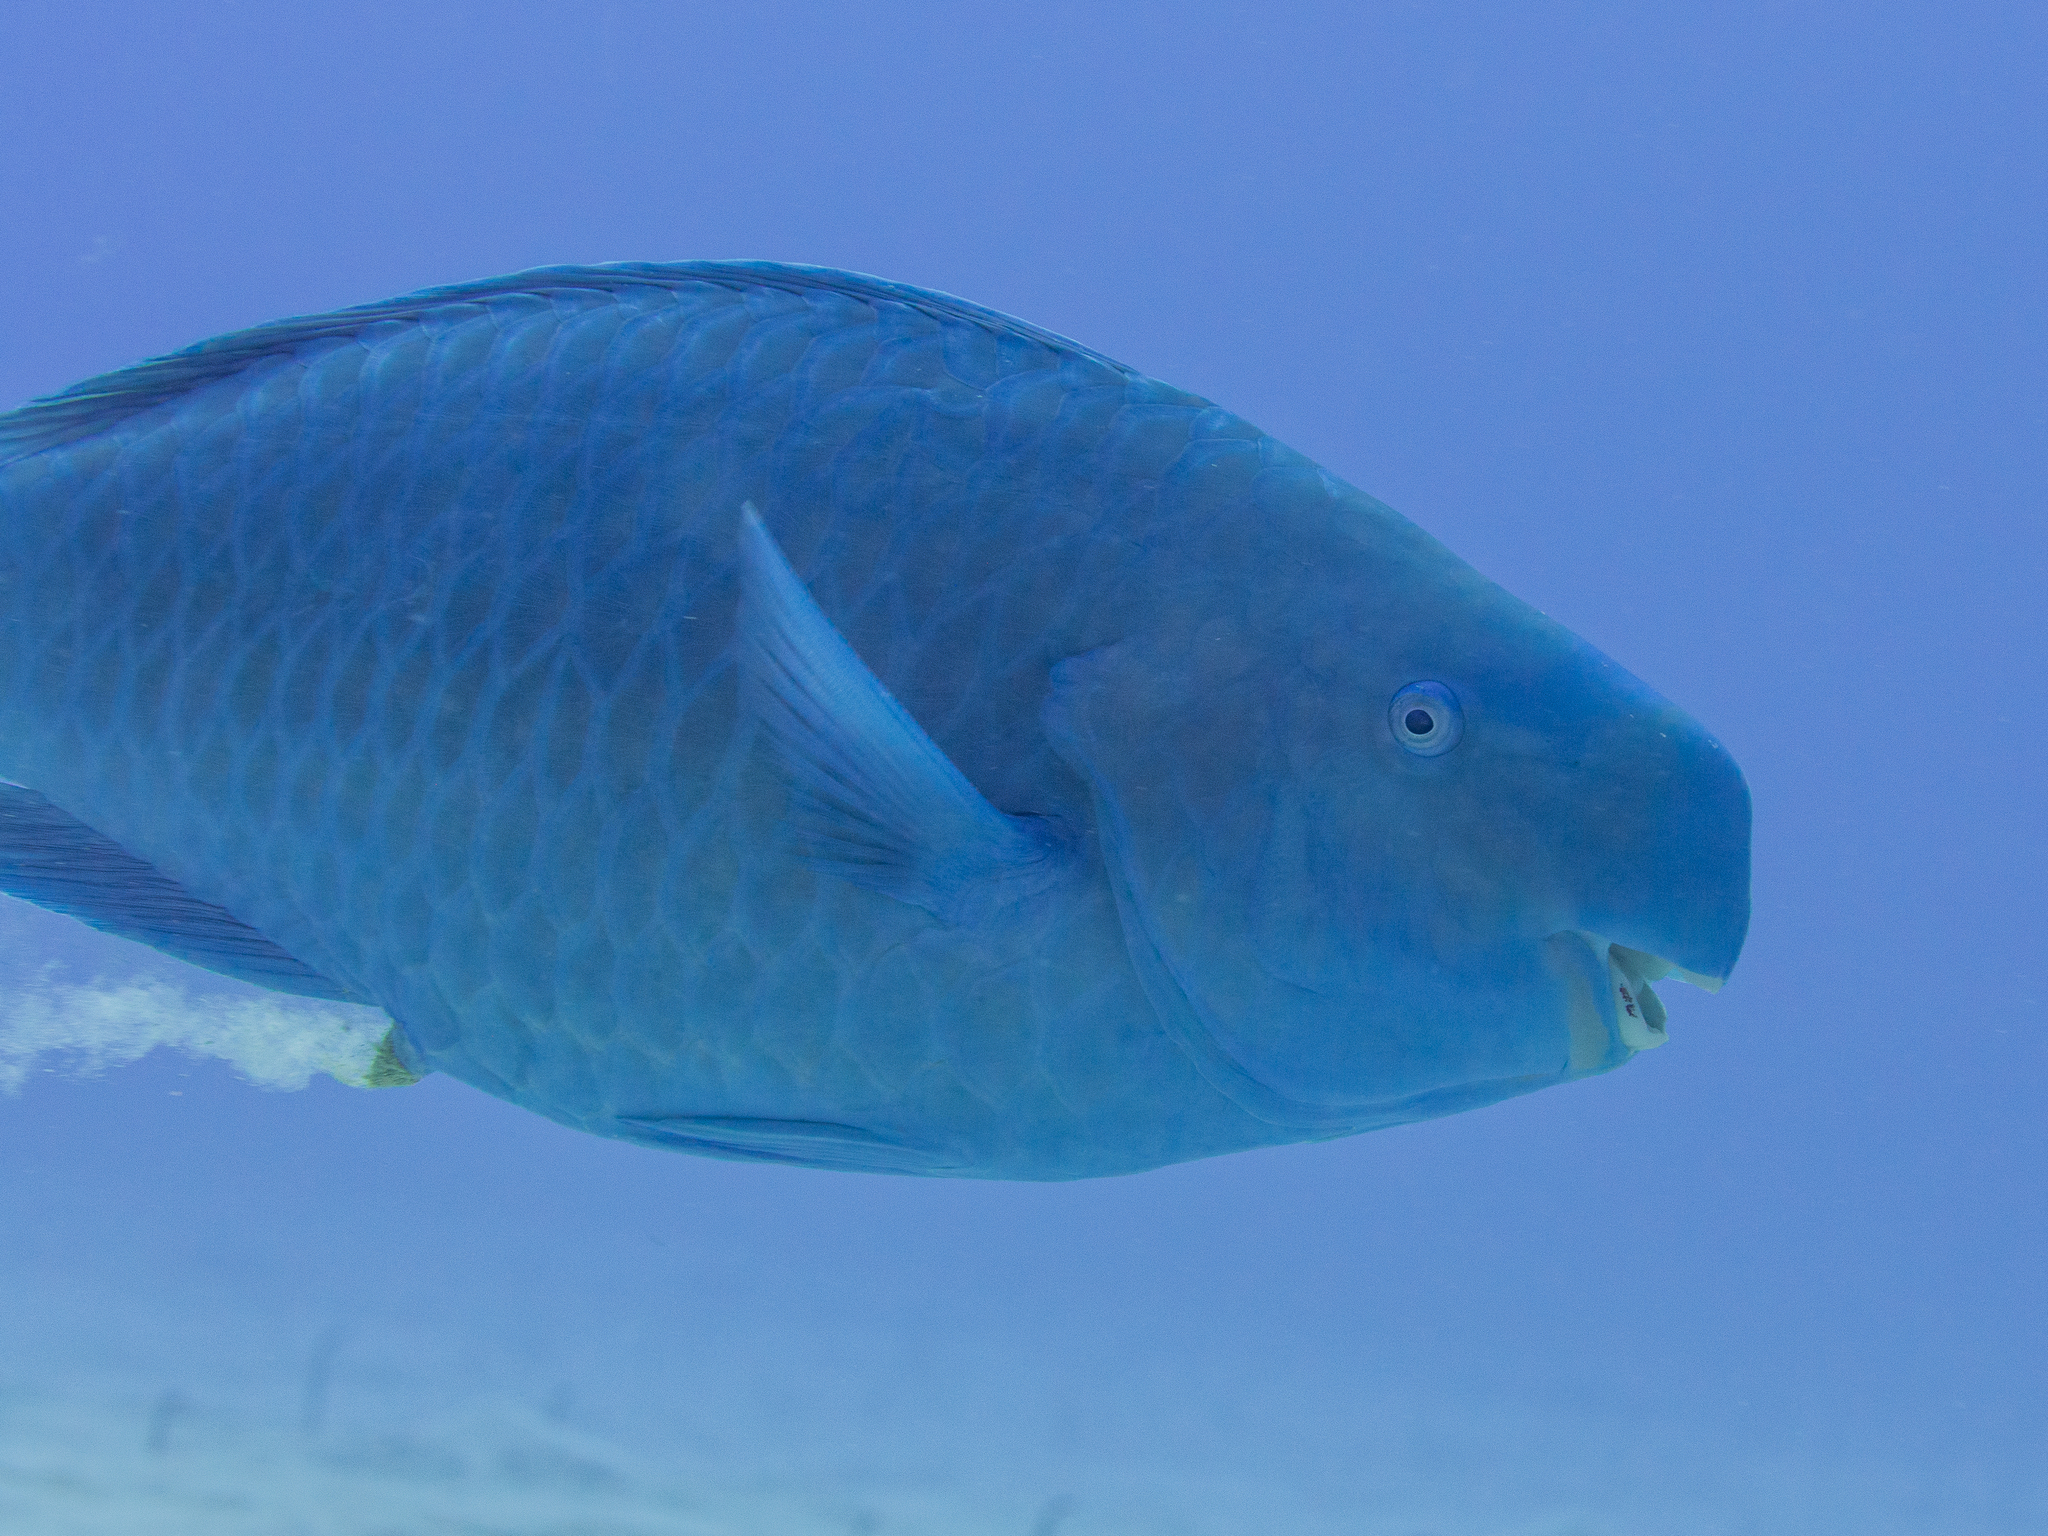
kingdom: Animalia
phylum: Chordata
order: Perciformes
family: Scaridae
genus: Scarus
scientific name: Scarus coeruleus
